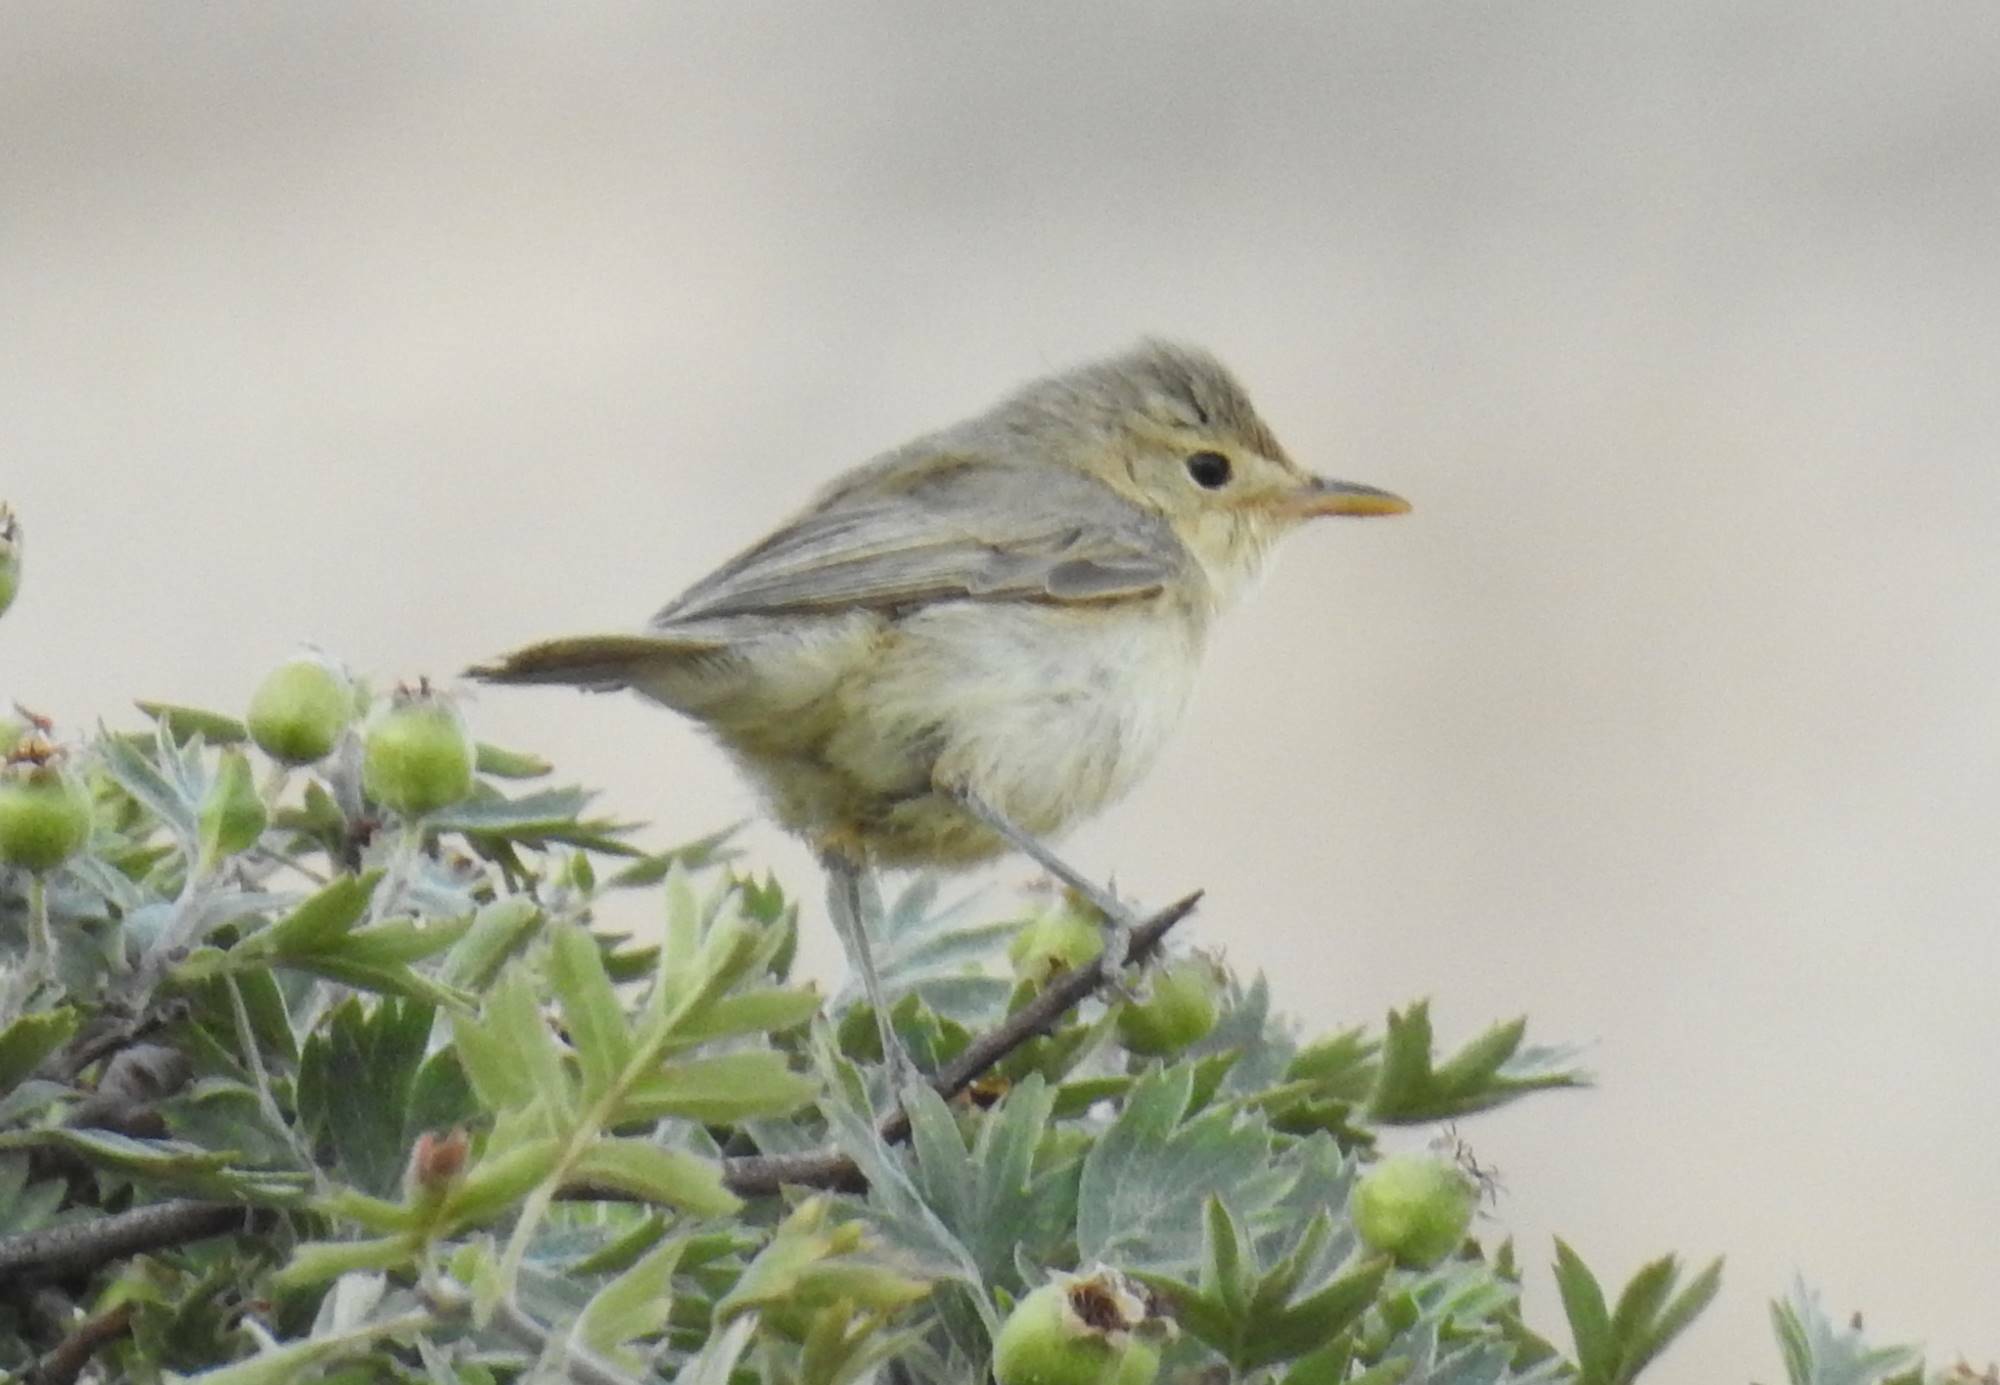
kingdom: Animalia
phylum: Chordata
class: Aves
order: Passeriformes
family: Acrocephalidae
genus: Hippolais
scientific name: Hippolais polyglotta
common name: Melodious warbler
